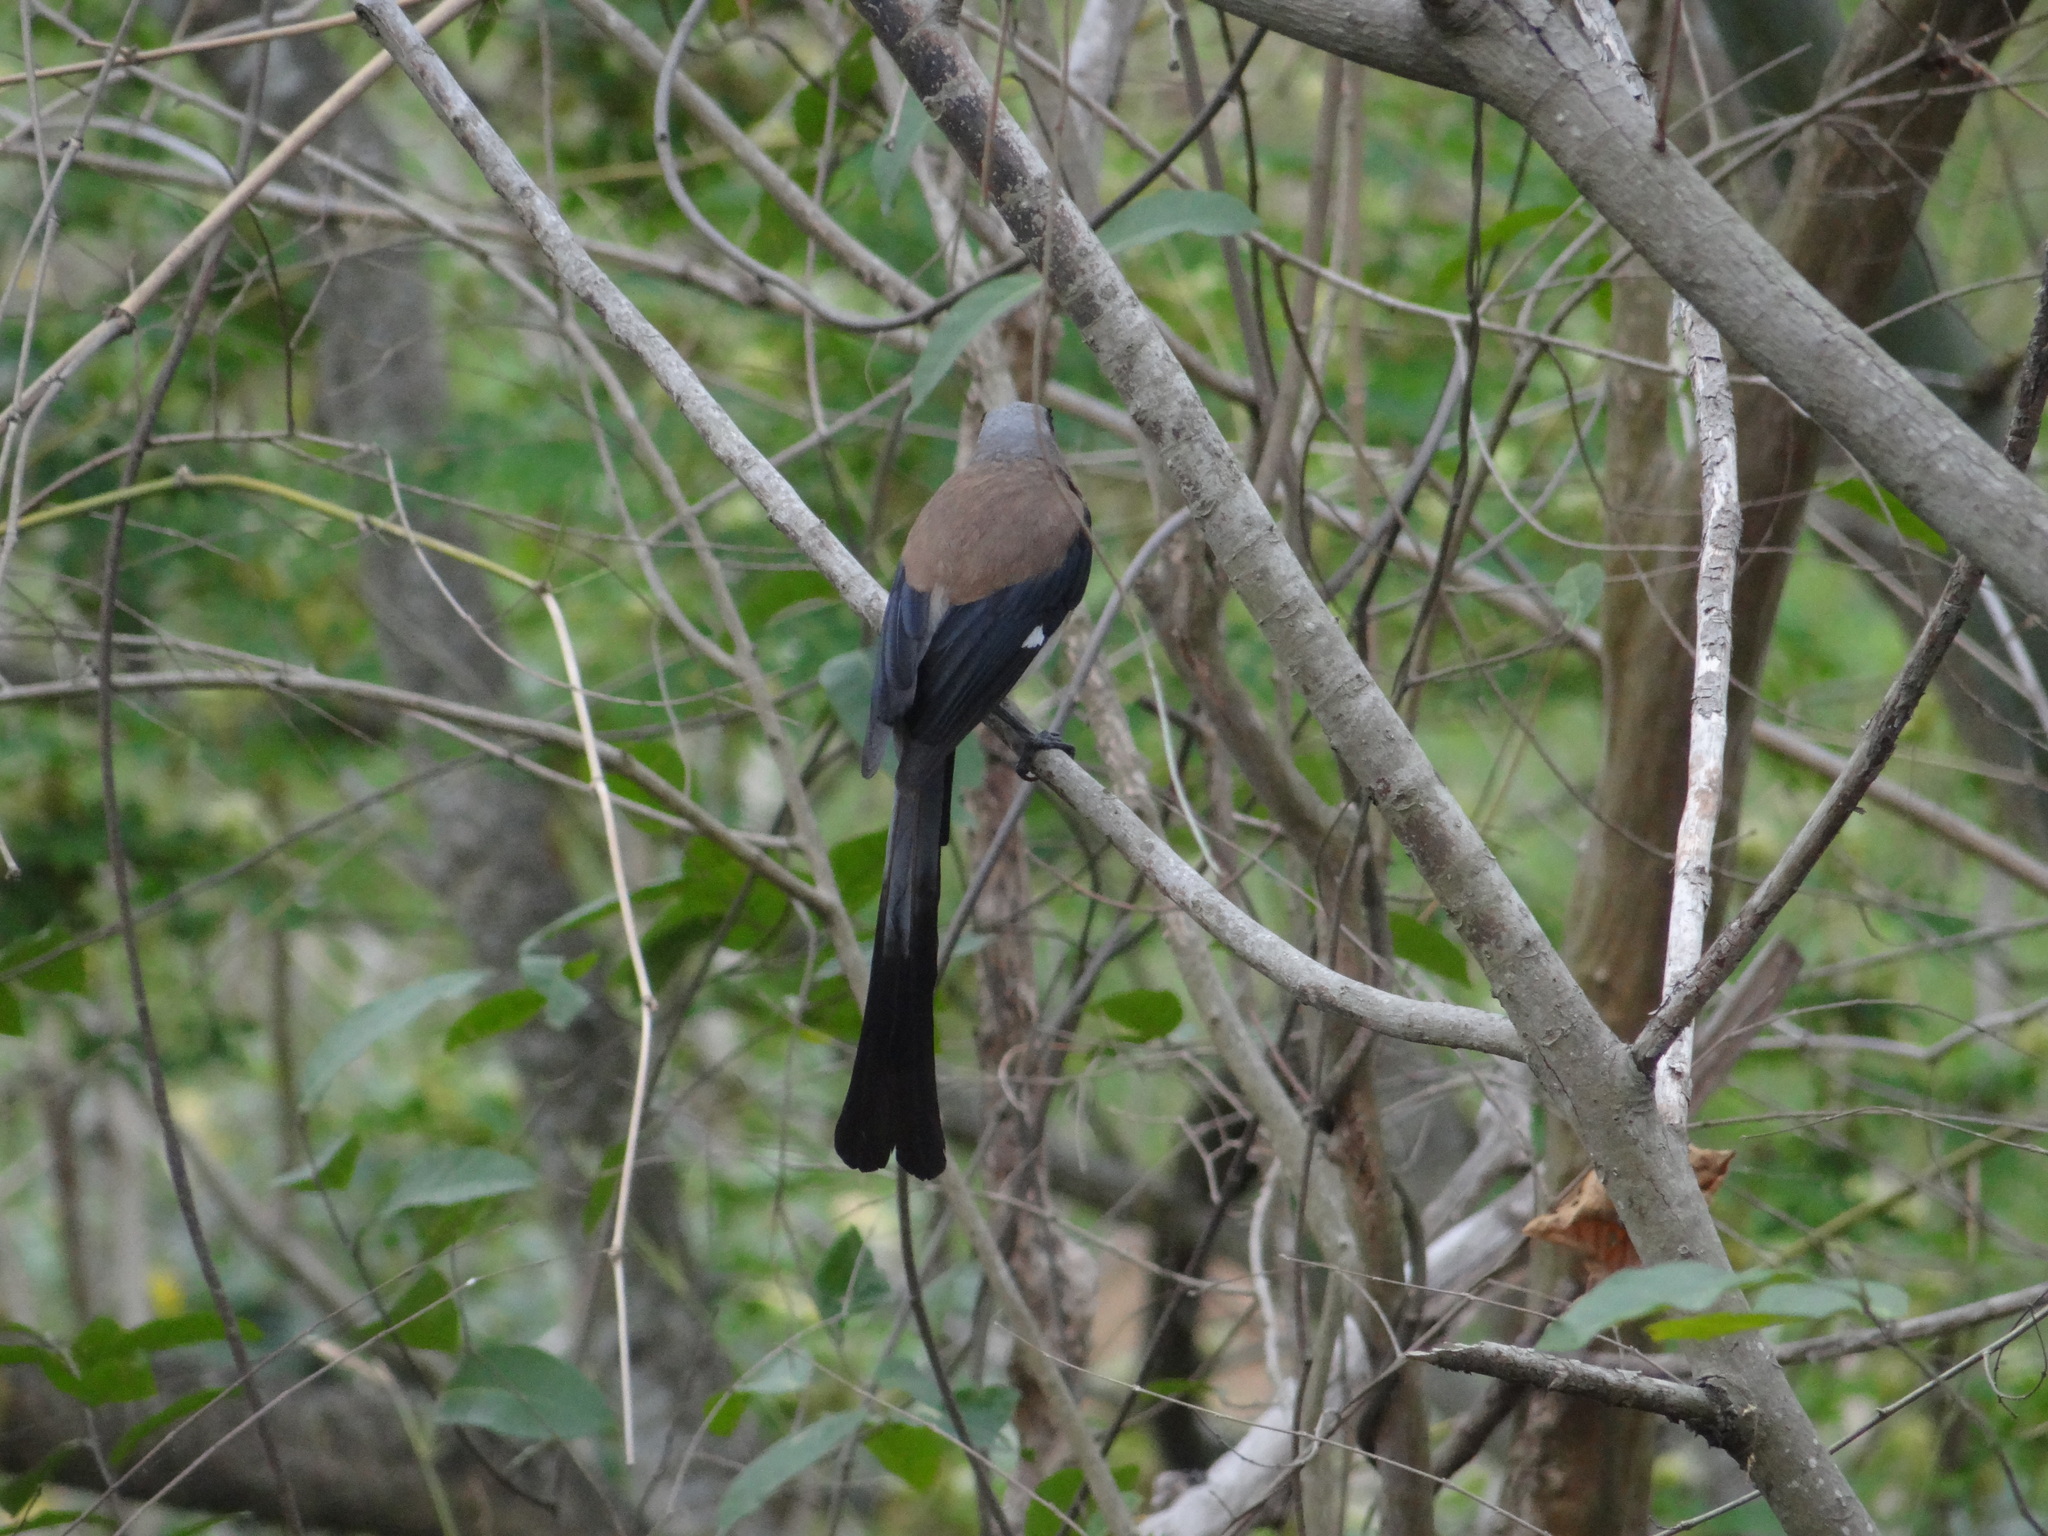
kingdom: Animalia
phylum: Chordata
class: Aves
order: Passeriformes
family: Corvidae
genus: Dendrocitta
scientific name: Dendrocitta formosae
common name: Grey treepie
